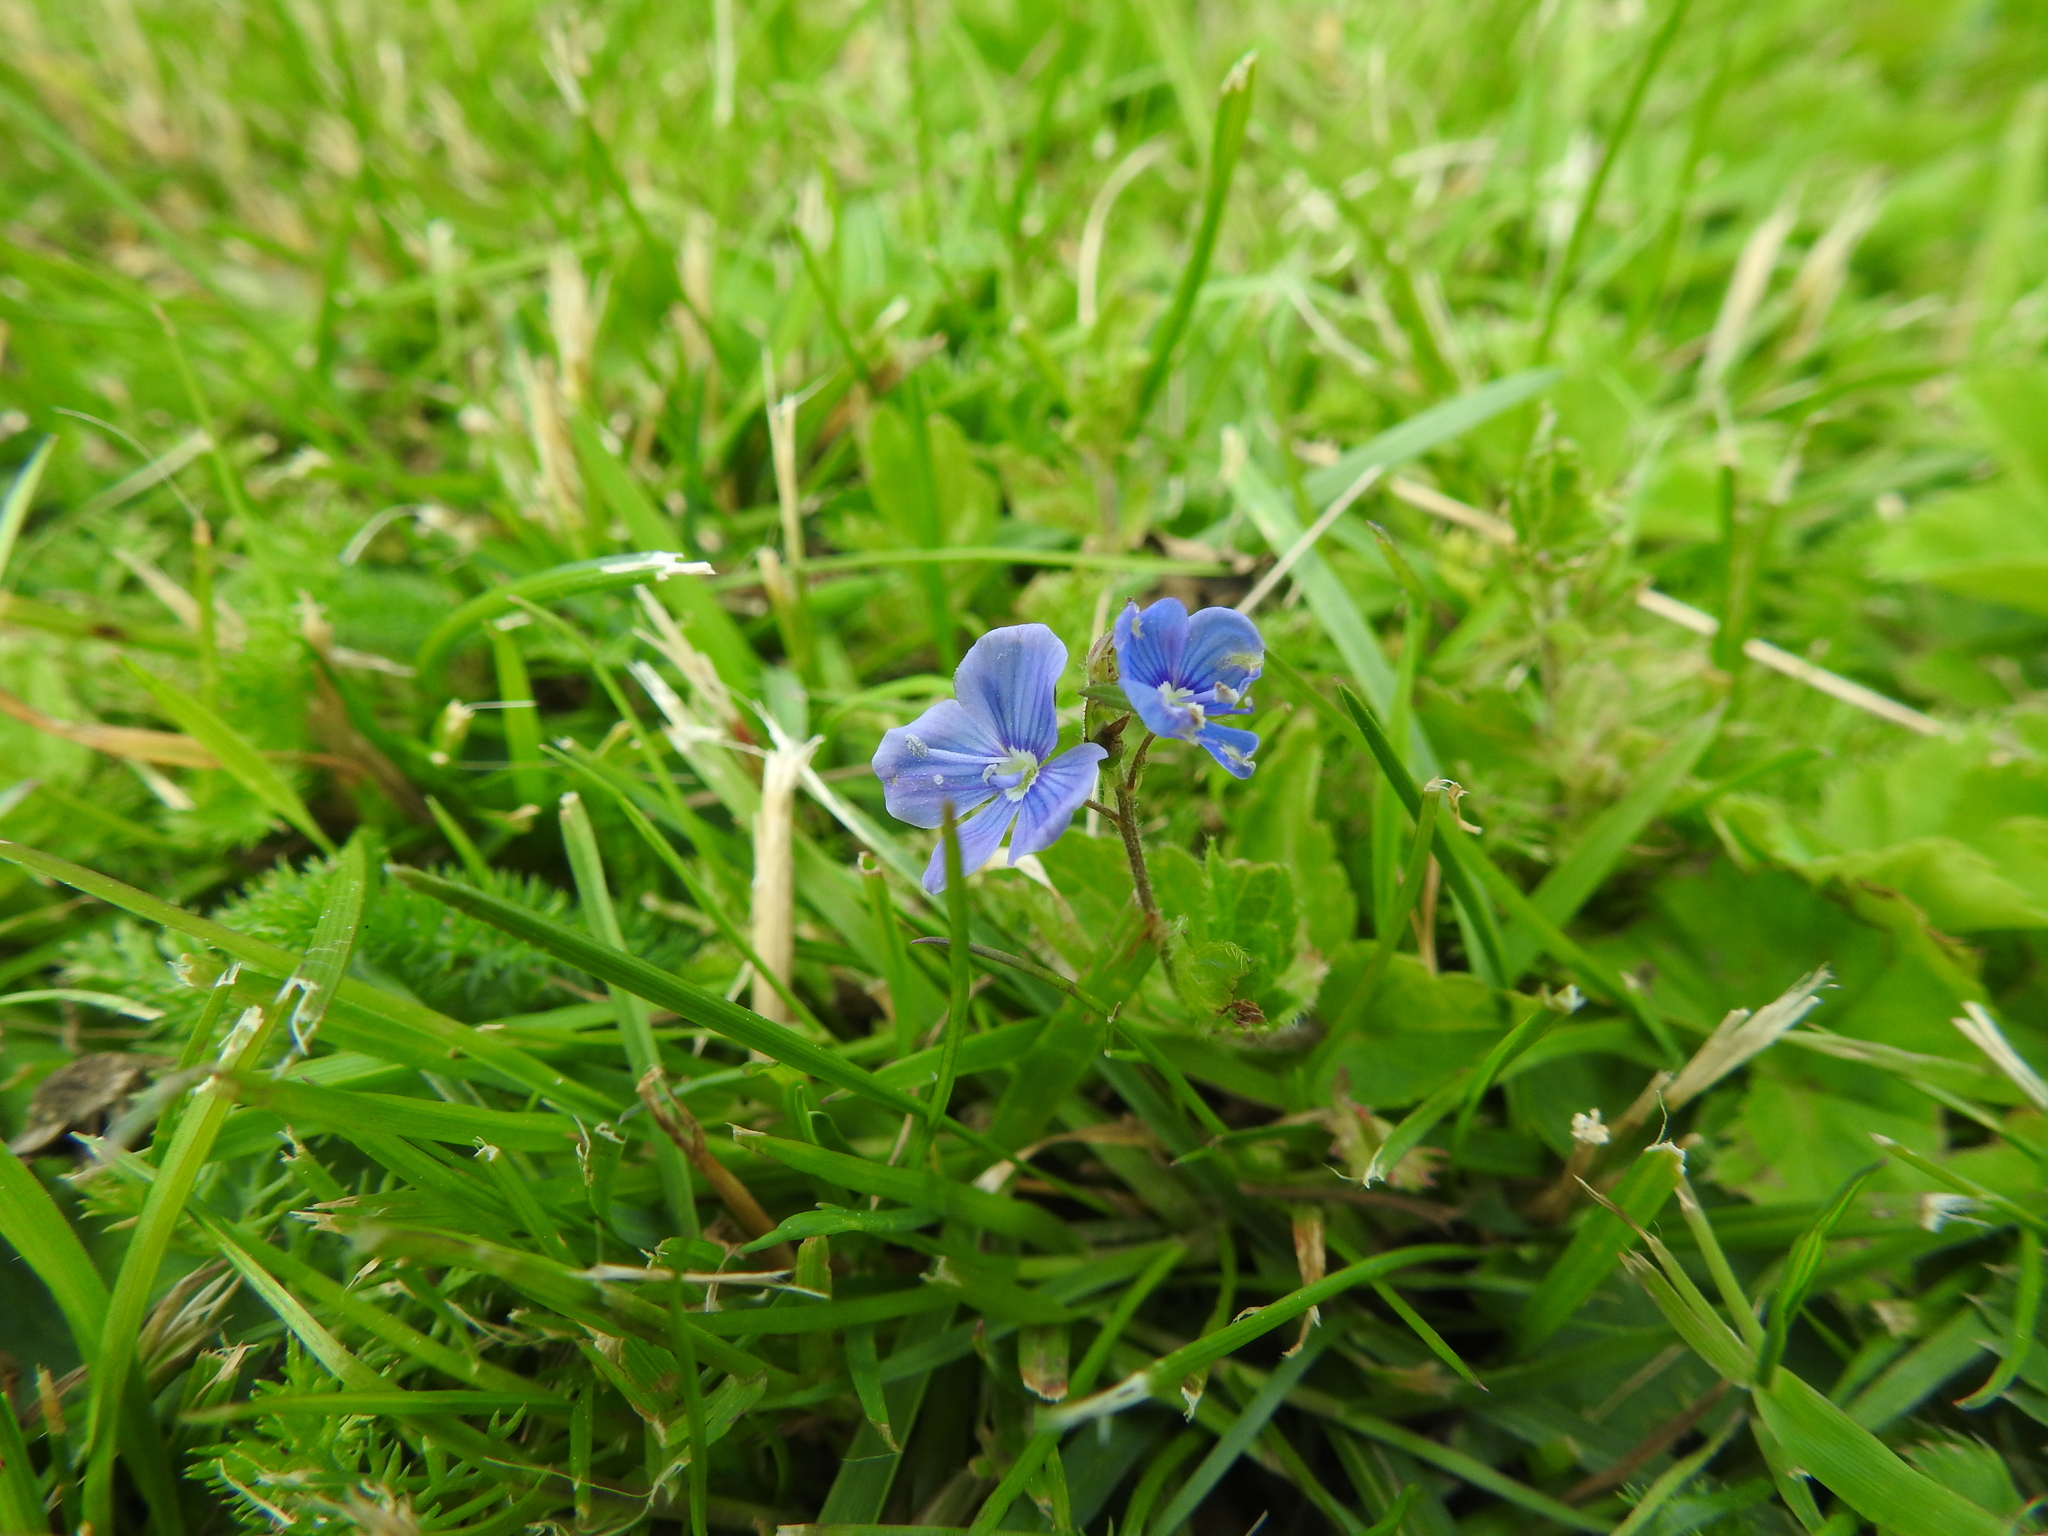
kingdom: Plantae
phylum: Tracheophyta
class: Magnoliopsida
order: Lamiales
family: Plantaginaceae
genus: Veronica
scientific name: Veronica chamaedrys
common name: Germander speedwell
